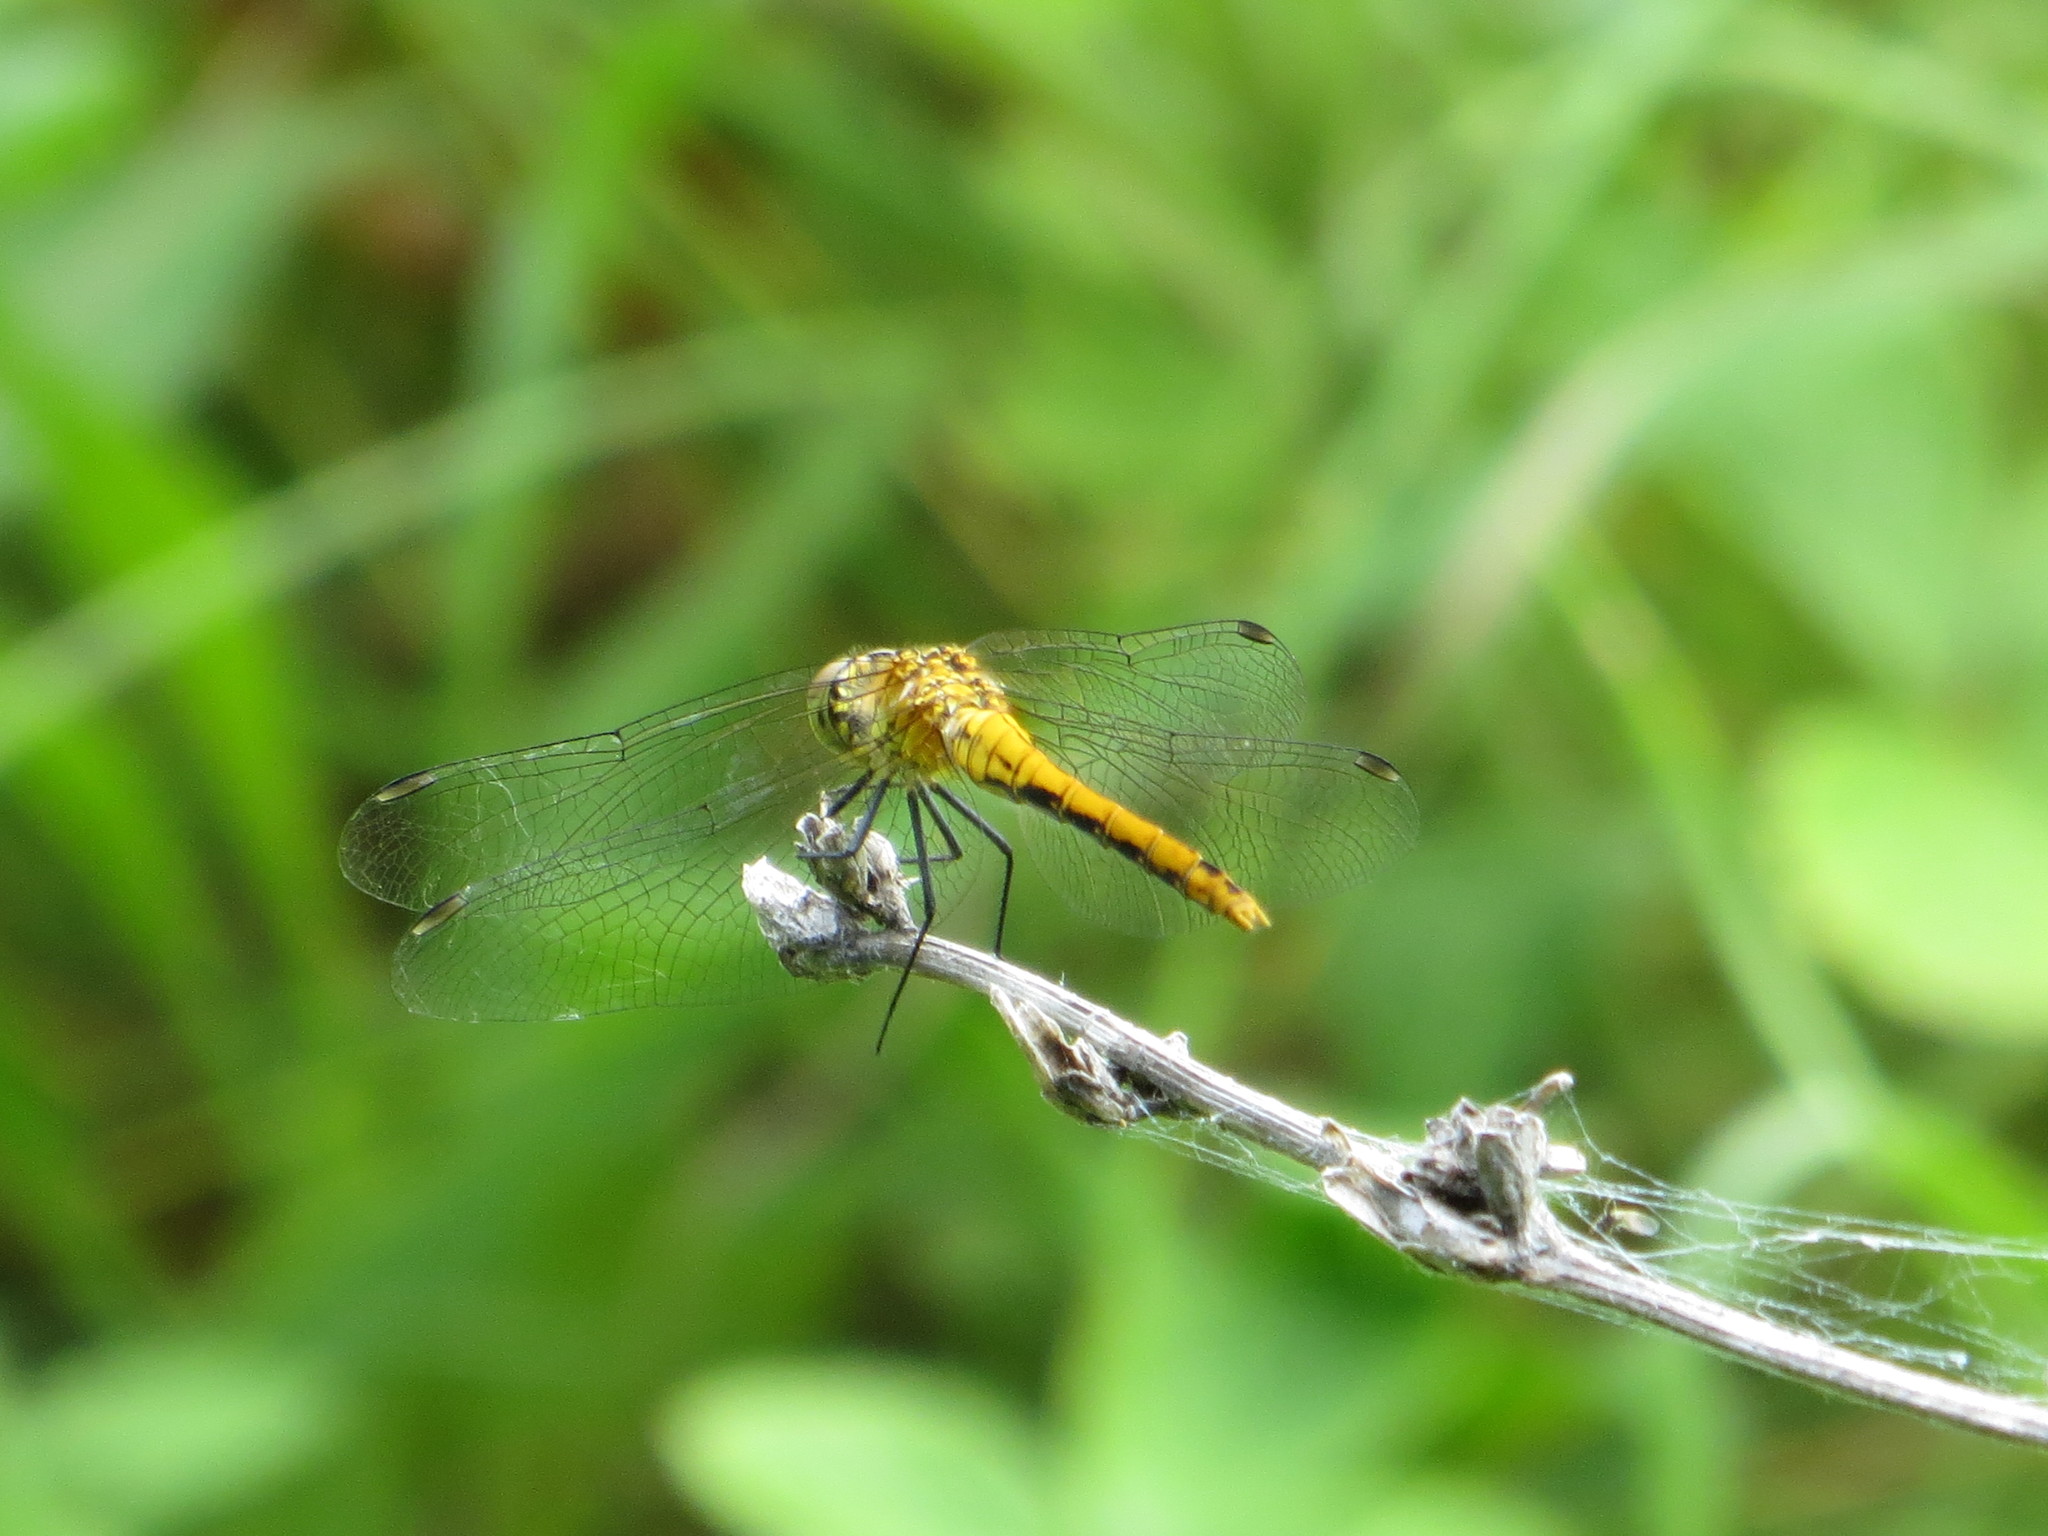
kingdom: Animalia
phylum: Arthropoda
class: Insecta
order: Odonata
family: Libellulidae
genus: Sympetrum
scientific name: Sympetrum sanguineum
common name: Ruddy darter
